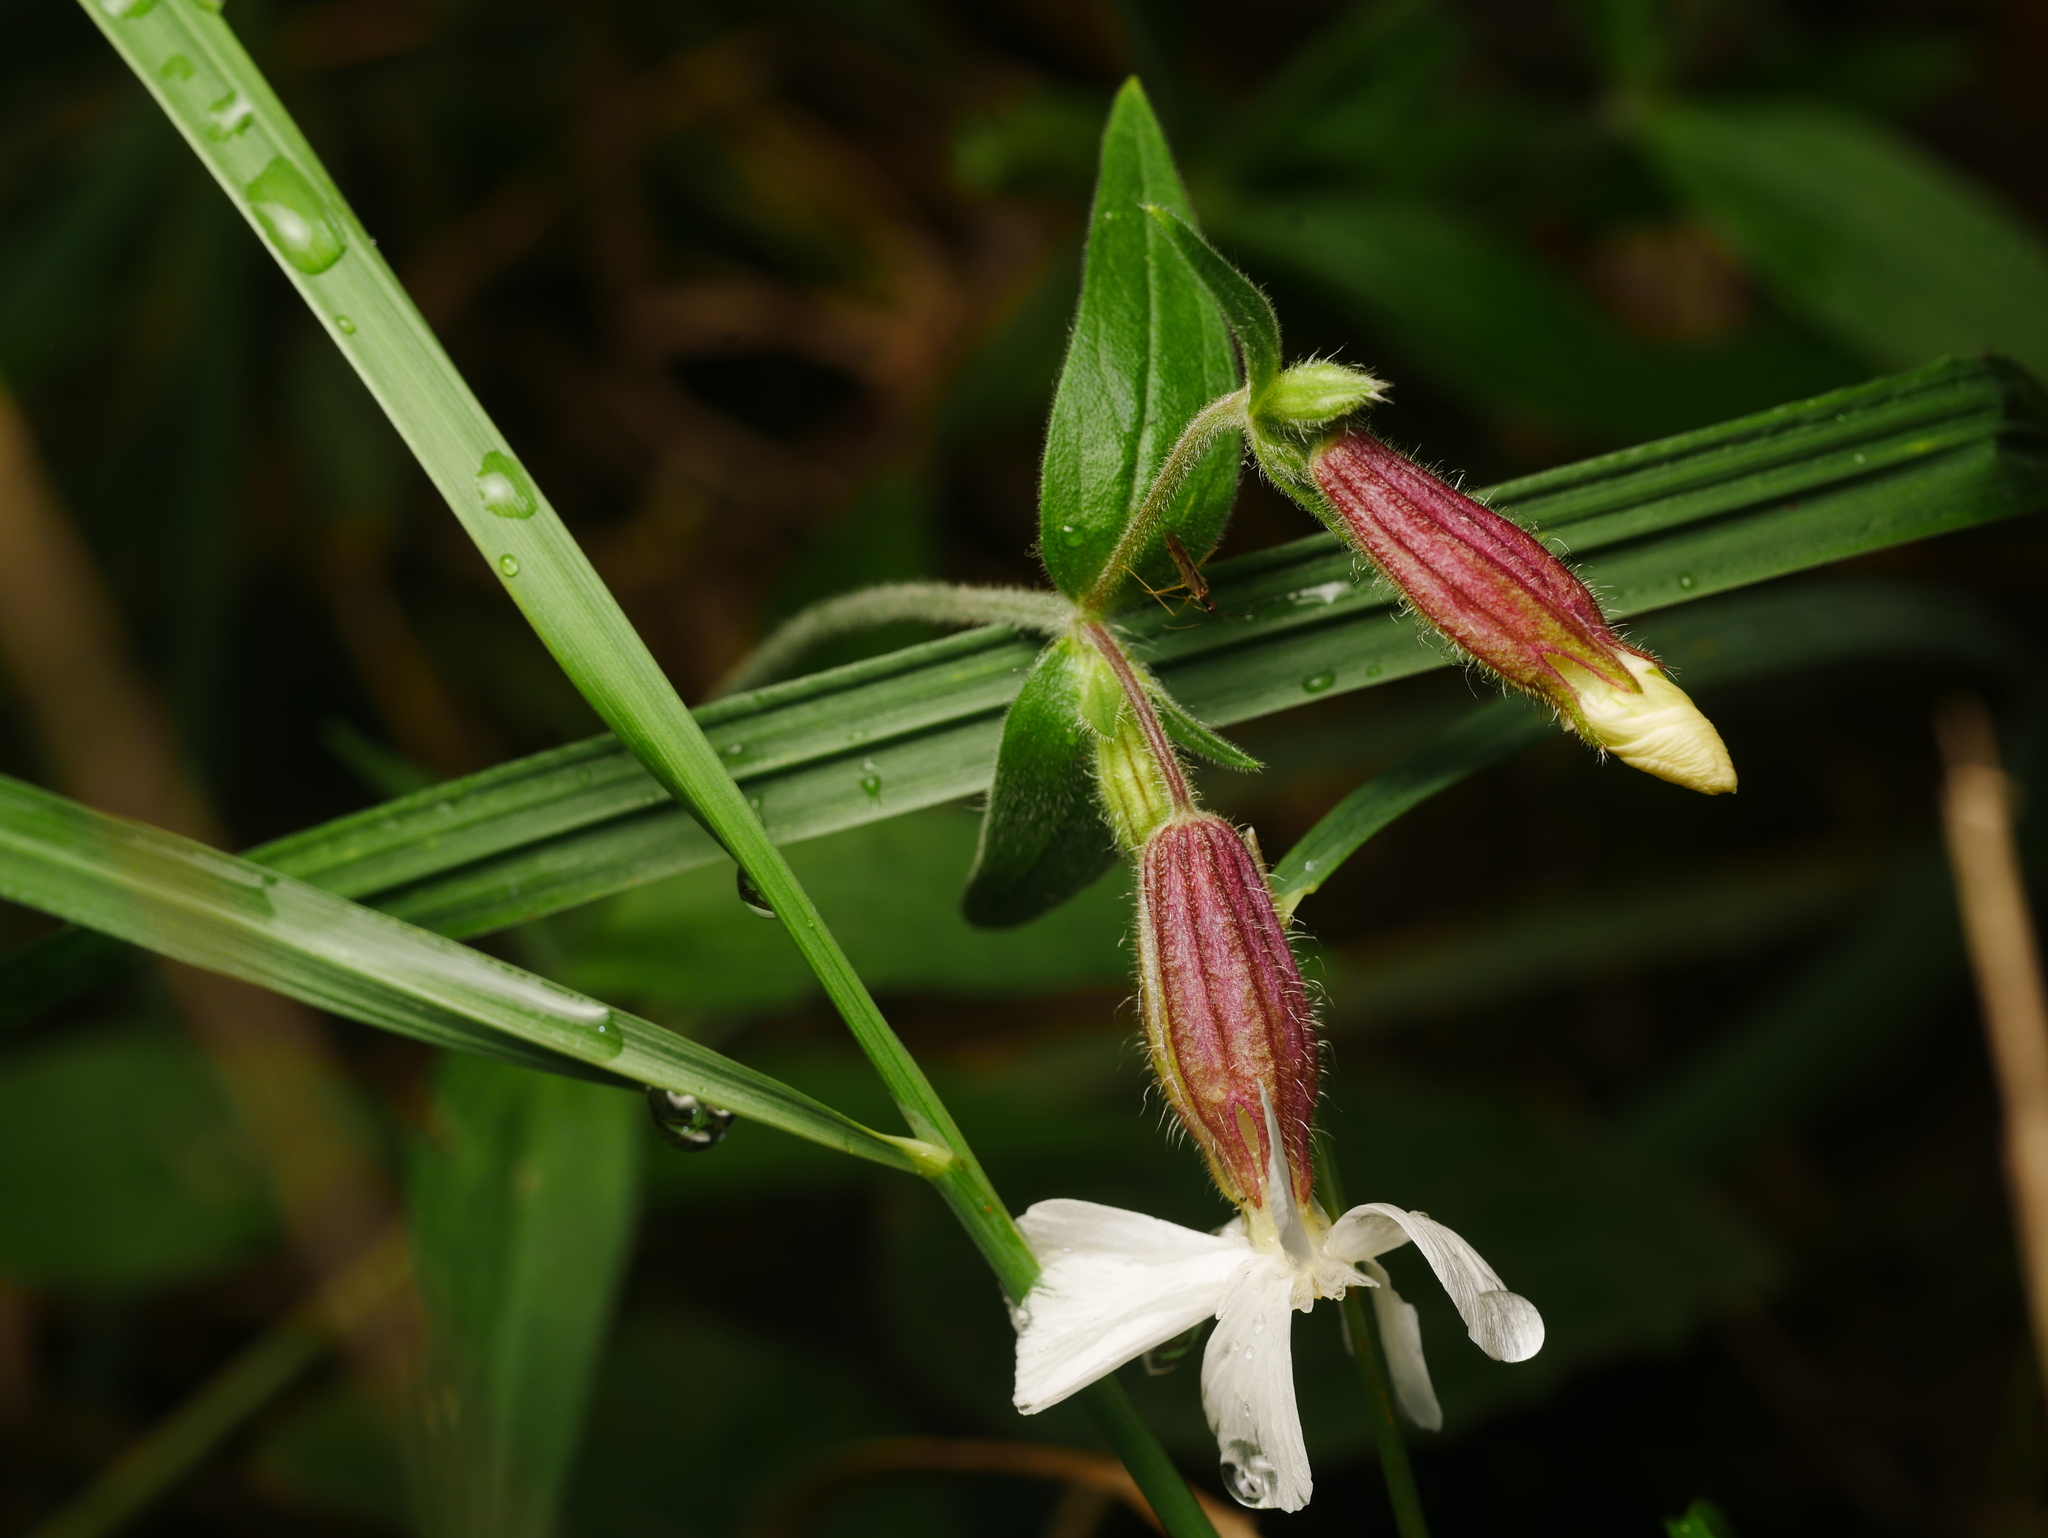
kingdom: Plantae
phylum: Tracheophyta
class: Magnoliopsida
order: Caryophyllales
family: Caryophyllaceae
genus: Silene
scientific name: Silene latifolia
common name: White campion
